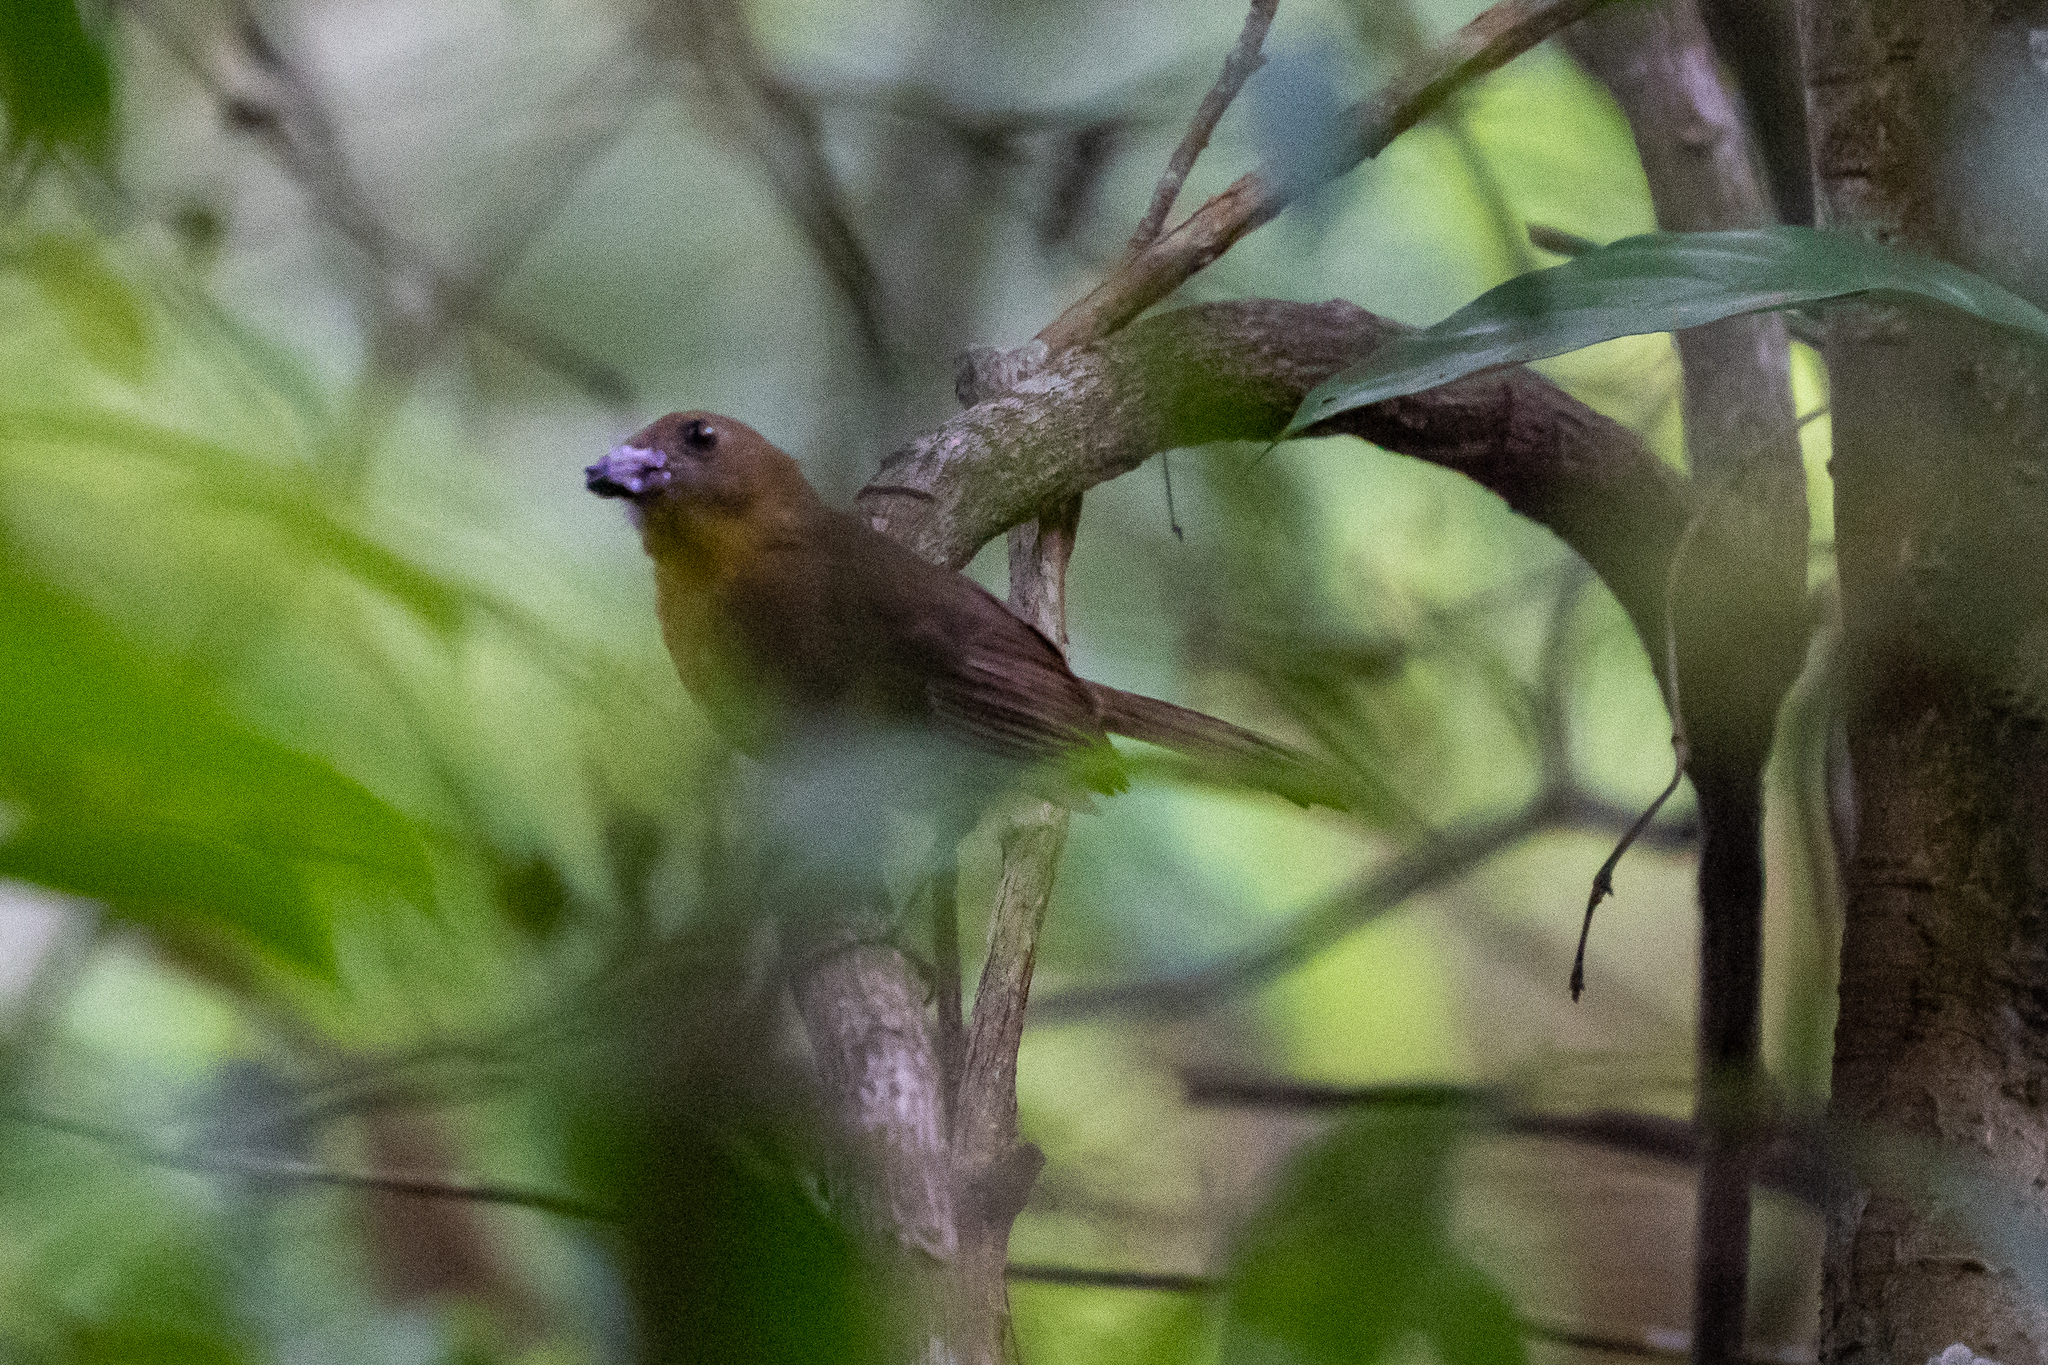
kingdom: Animalia
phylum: Chordata
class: Aves
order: Passeriformes
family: Cardinalidae
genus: Habia
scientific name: Habia fuscicauda
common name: Red-throated ant-tanager
